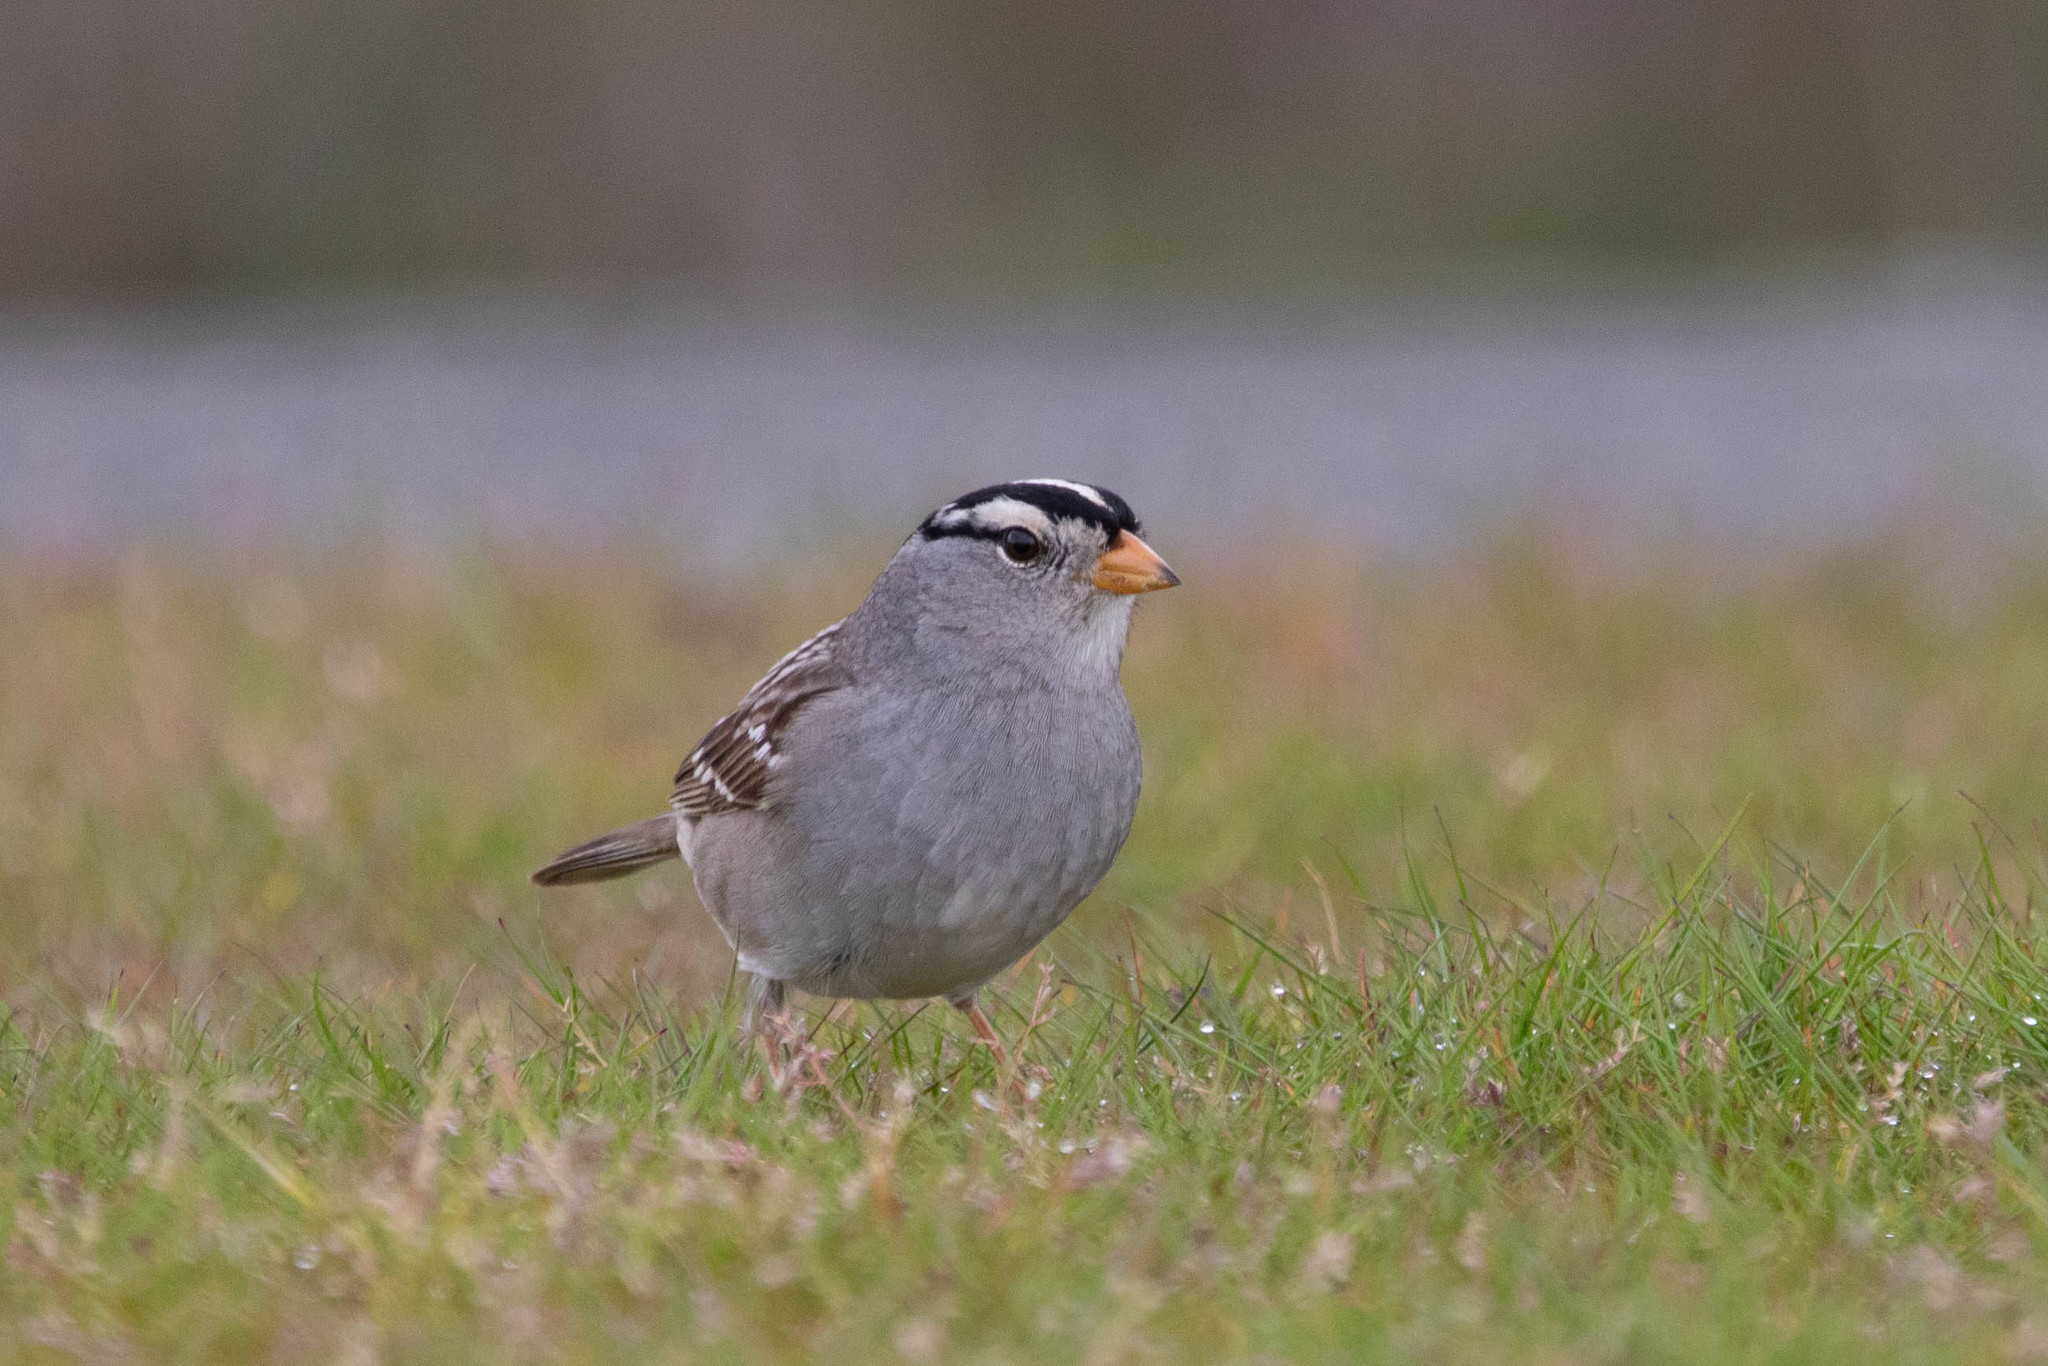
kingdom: Animalia
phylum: Chordata
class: Aves
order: Passeriformes
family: Passerellidae
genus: Zonotrichia
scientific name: Zonotrichia leucophrys
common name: White-crowned sparrow
